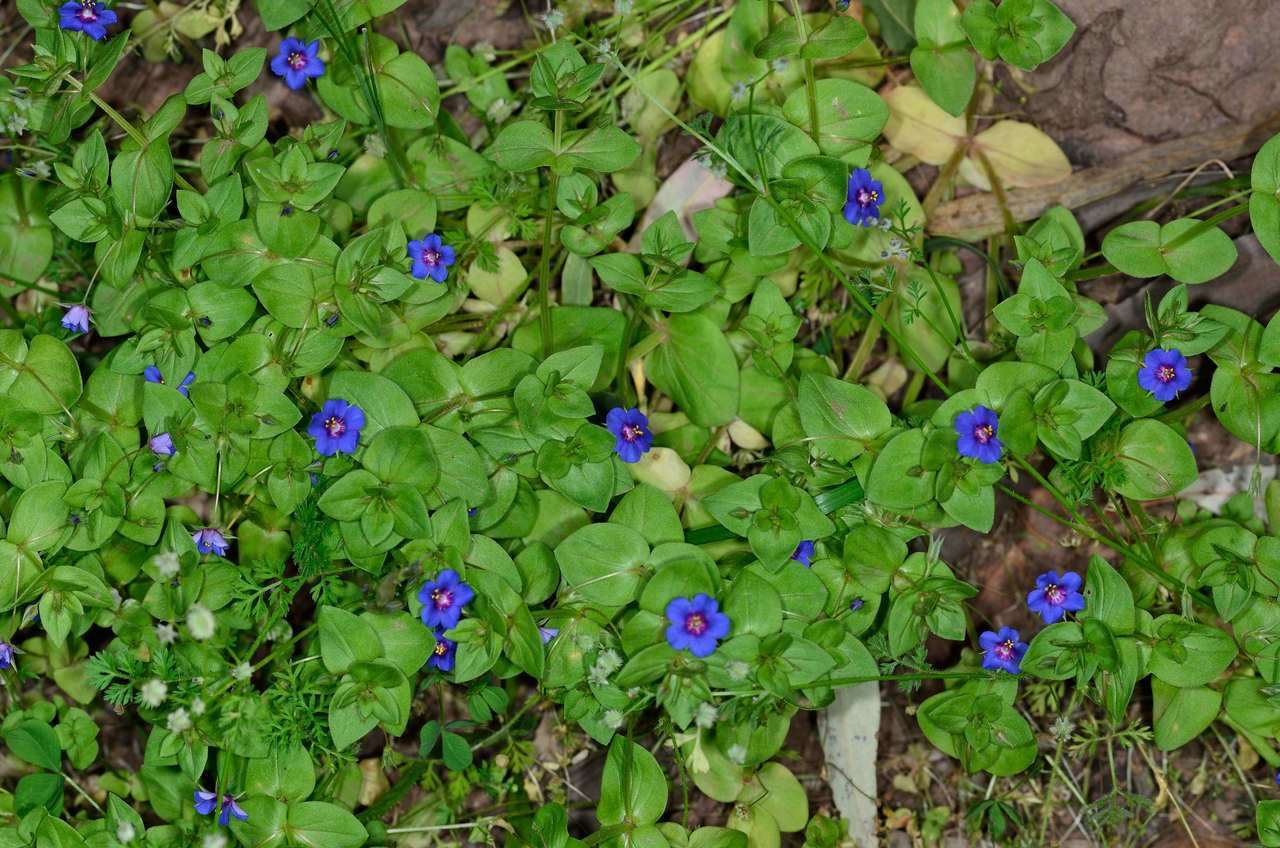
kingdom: Plantae
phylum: Tracheophyta
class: Magnoliopsida
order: Ericales
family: Primulaceae
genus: Lysimachia
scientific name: Lysimachia loeflingii
